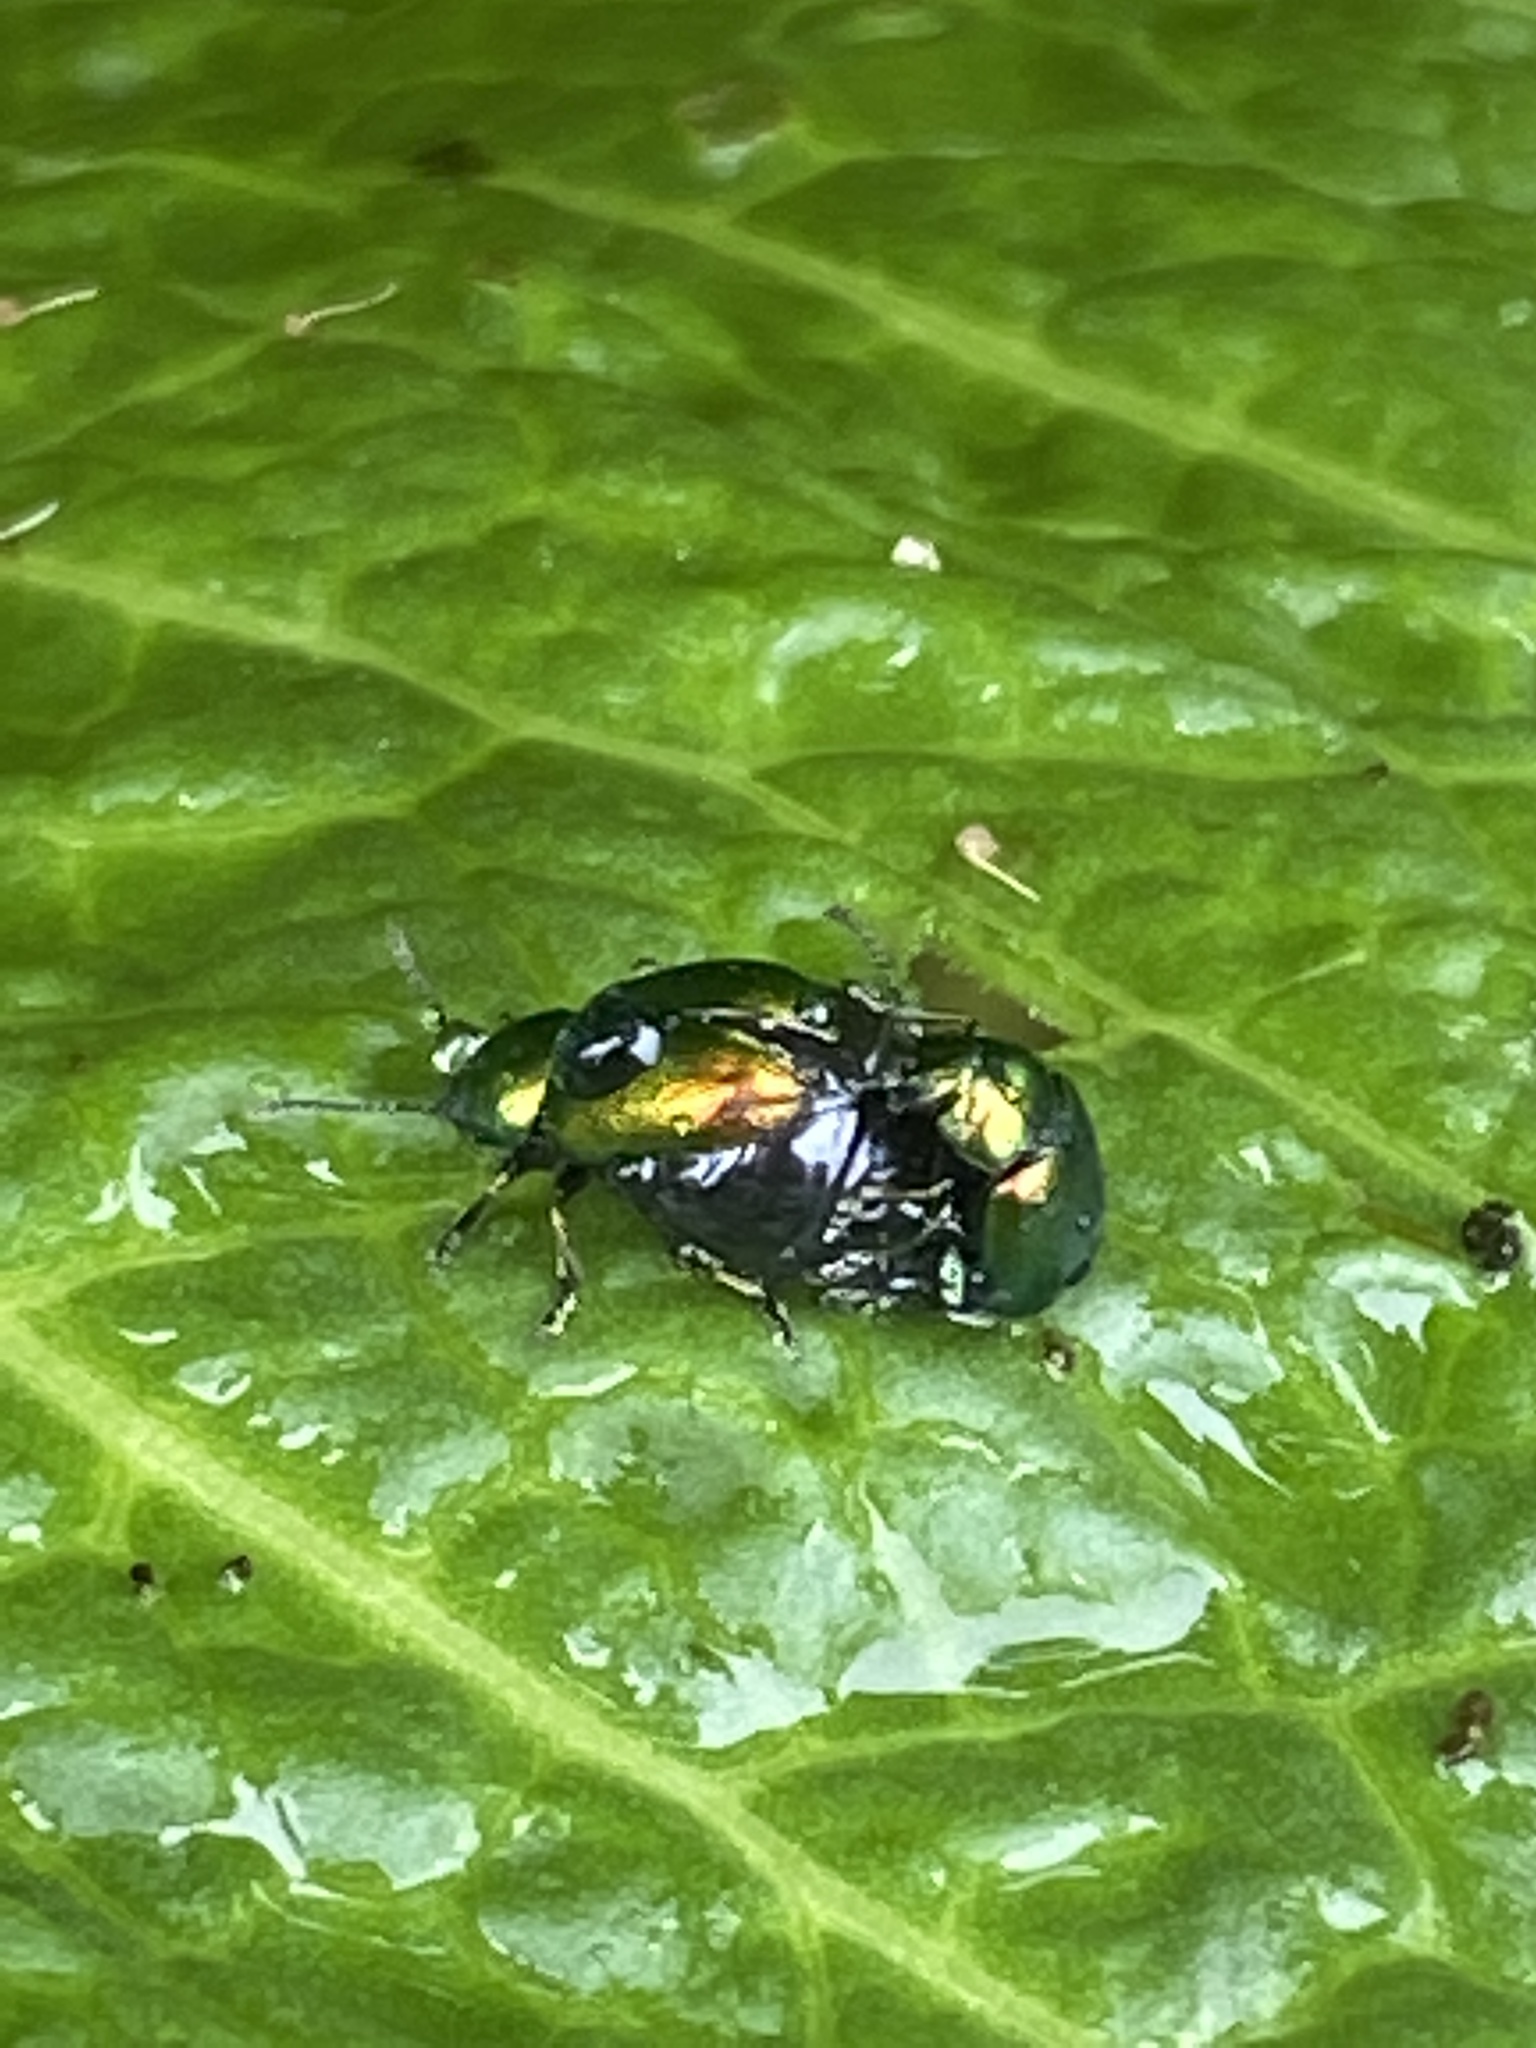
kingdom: Animalia
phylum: Arthropoda
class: Insecta
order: Coleoptera
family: Chrysomelidae
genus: Gastrophysa
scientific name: Gastrophysa viridula
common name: Green dock beetle
